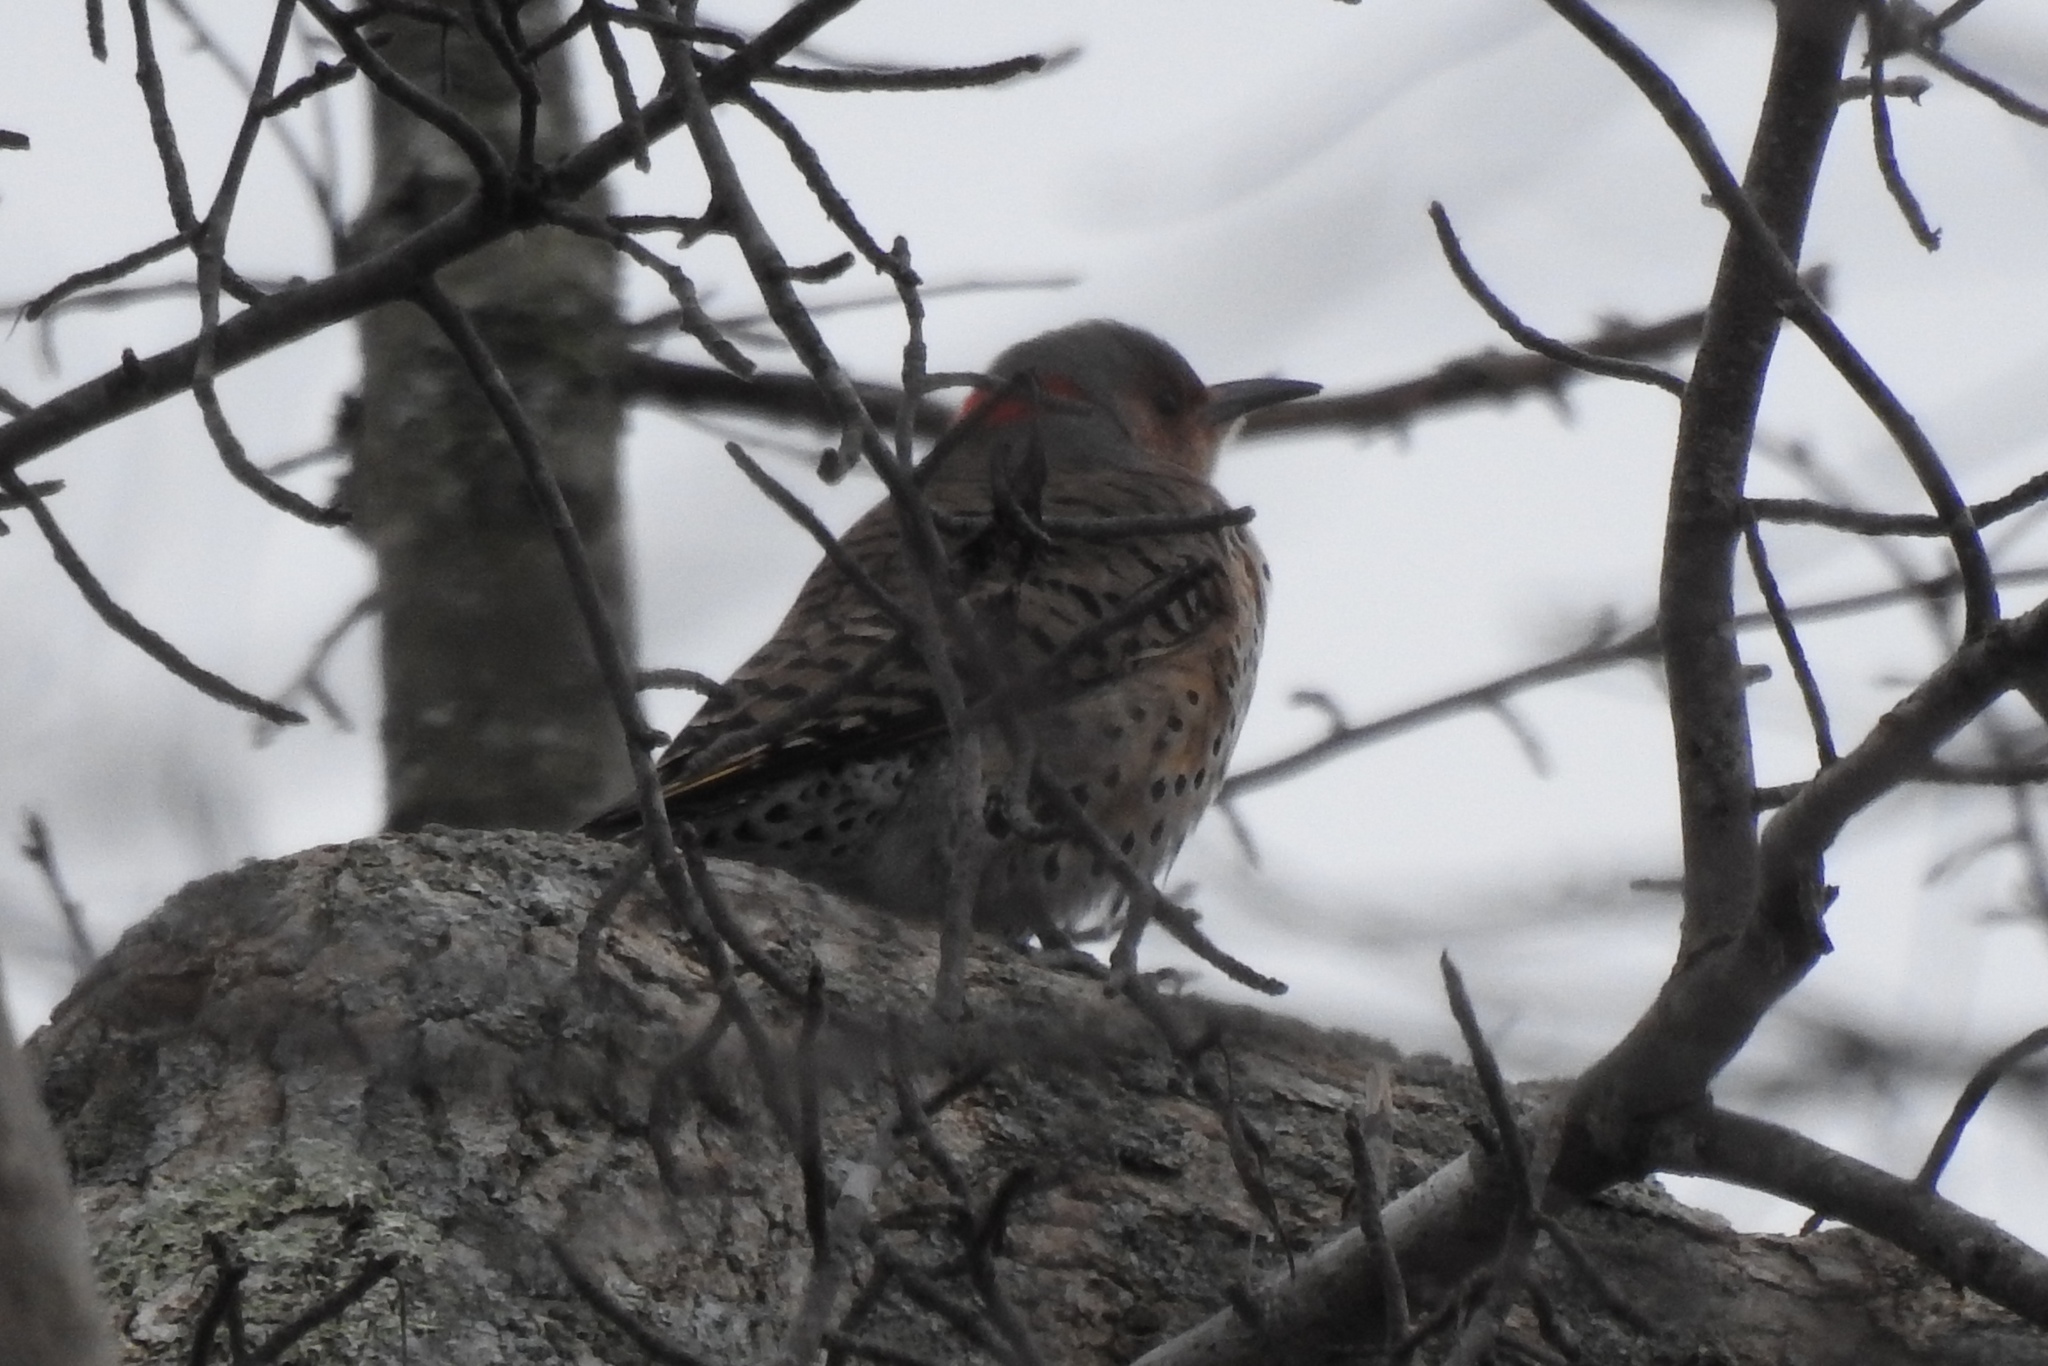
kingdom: Animalia
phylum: Chordata
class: Aves
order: Piciformes
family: Picidae
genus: Colaptes
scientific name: Colaptes auratus
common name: Northern flicker
